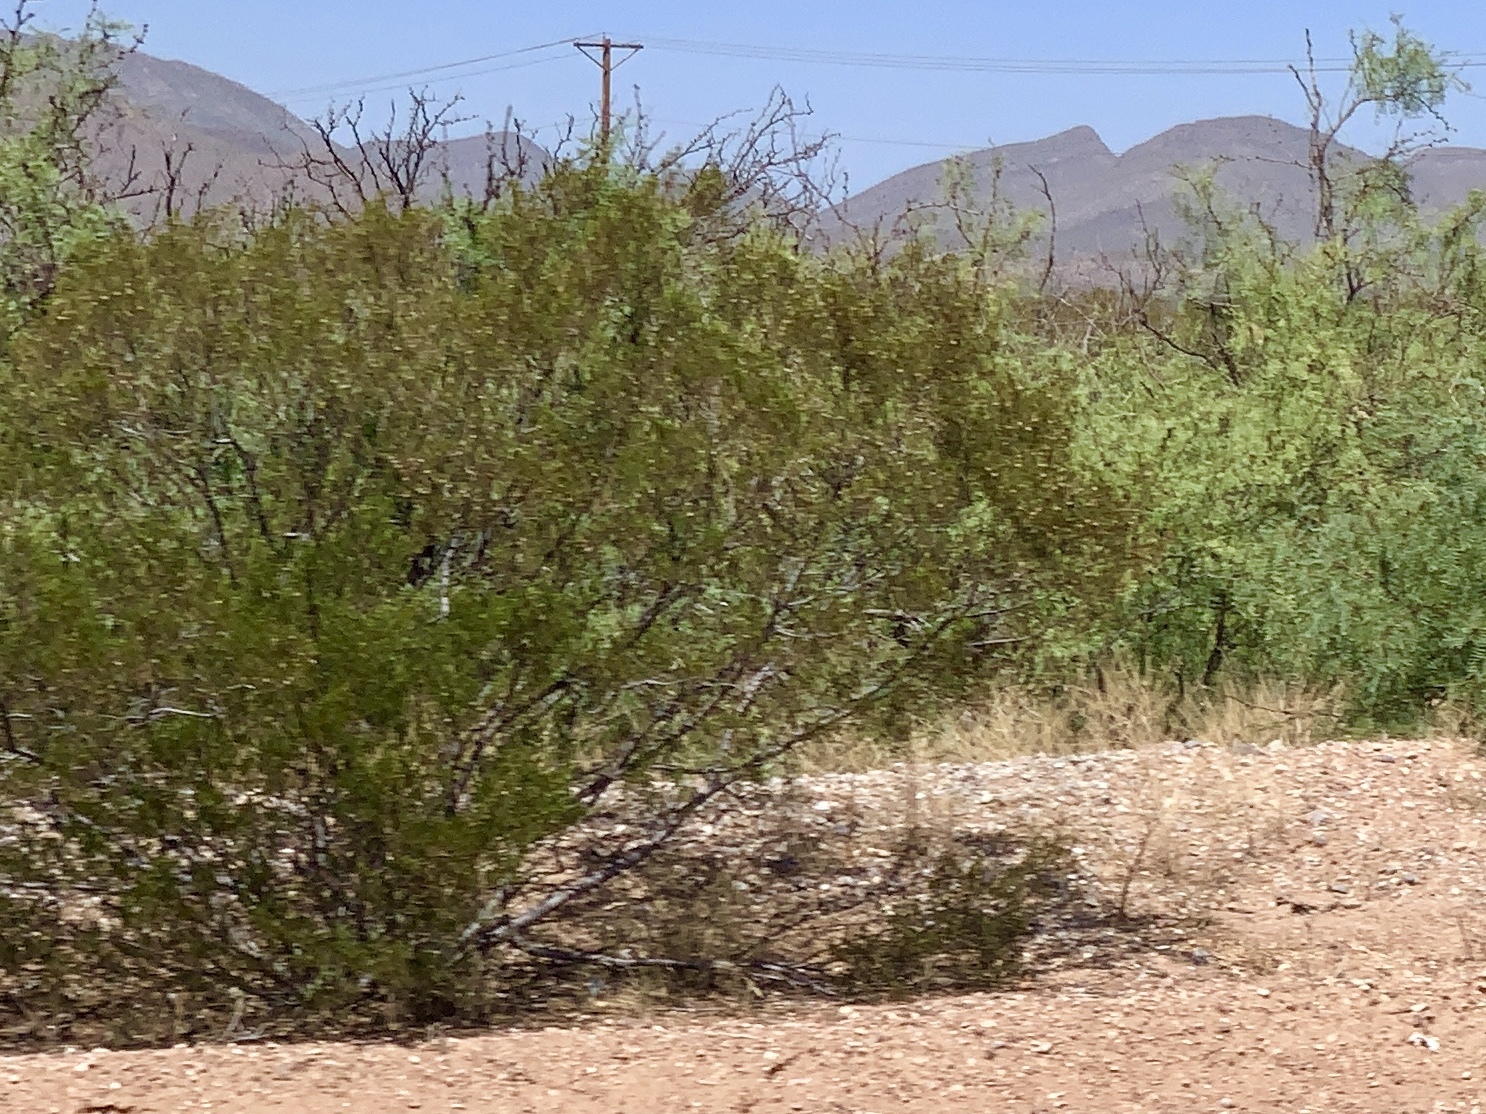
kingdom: Plantae
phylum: Tracheophyta
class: Magnoliopsida
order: Zygophyllales
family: Zygophyllaceae
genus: Larrea
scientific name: Larrea tridentata
